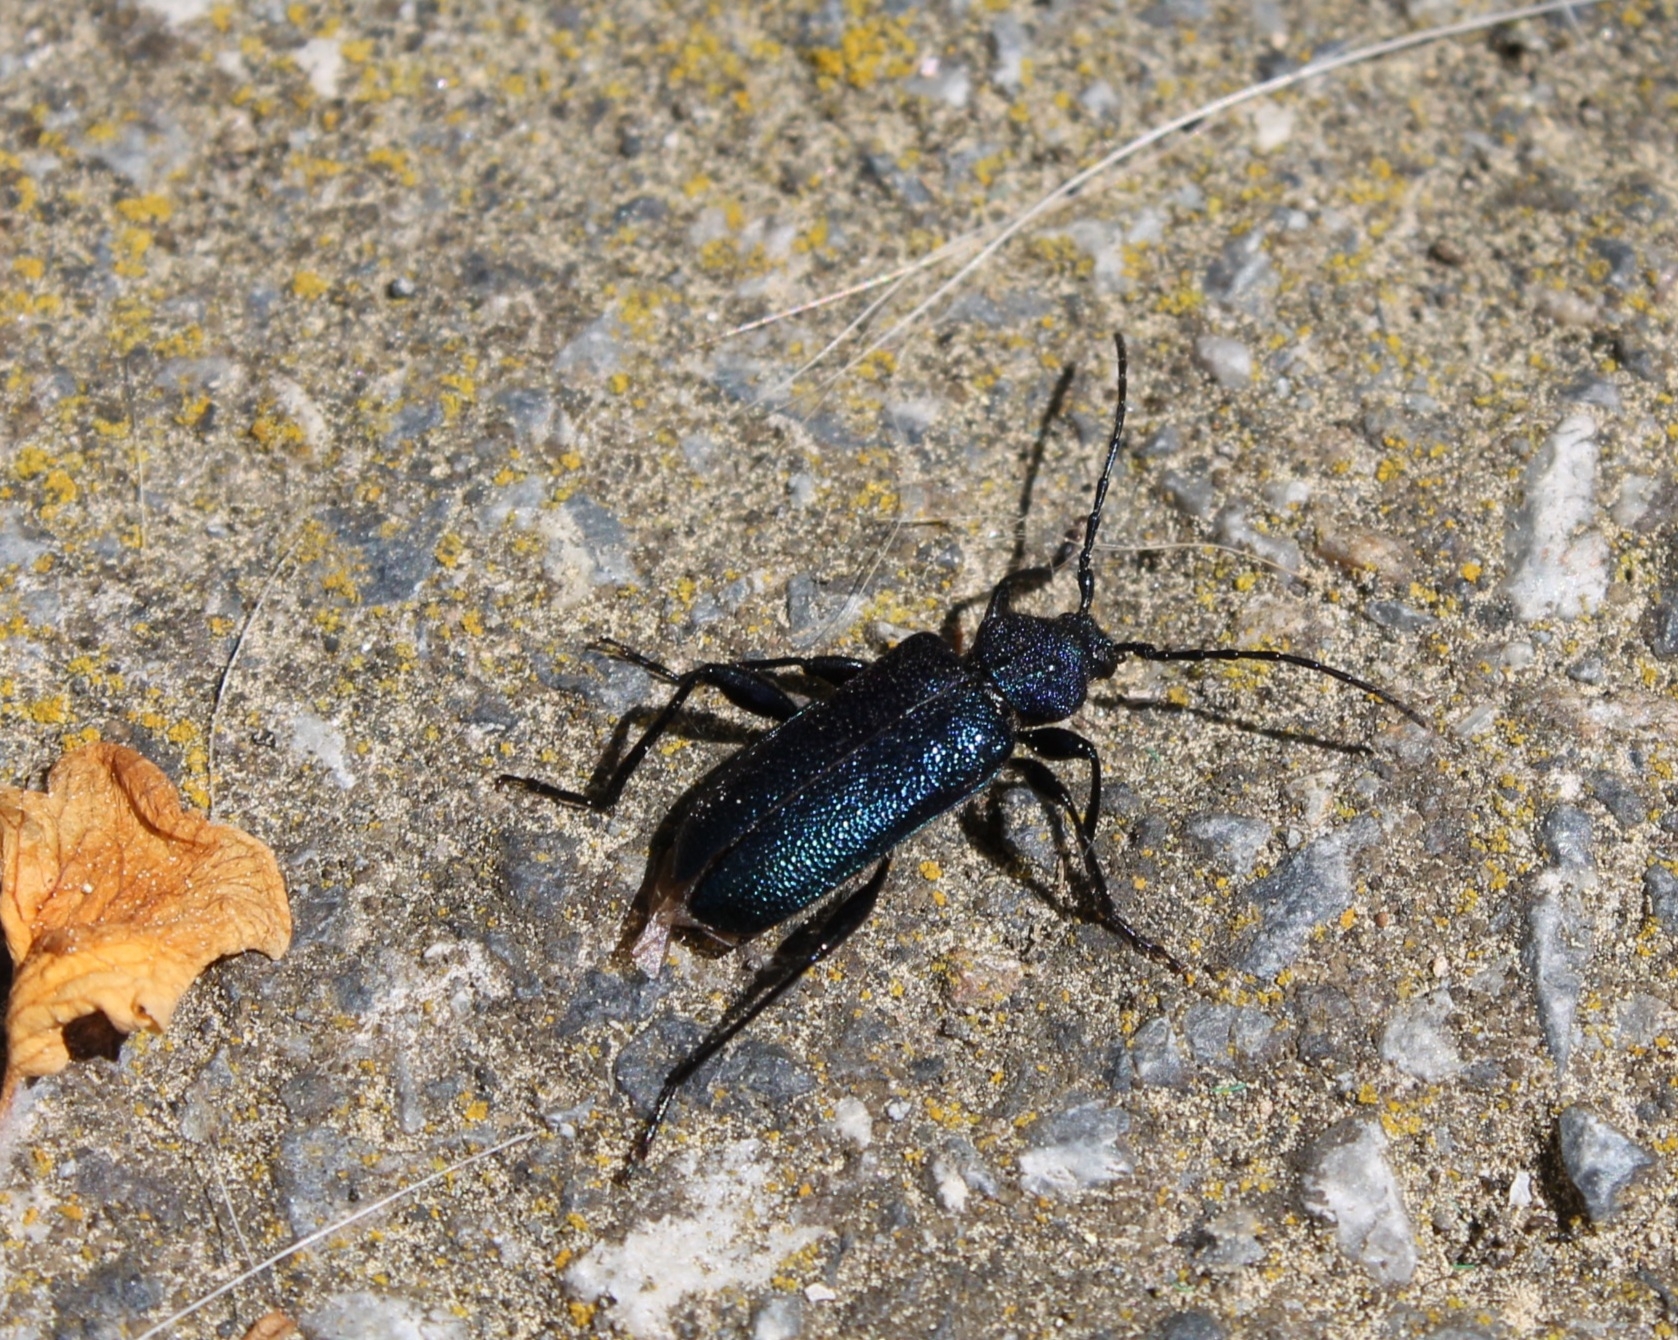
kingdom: Animalia
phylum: Arthropoda
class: Insecta
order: Coleoptera
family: Cerambycidae
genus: Callidium
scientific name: Callidium violaceum
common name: Violet tanbark beetle
